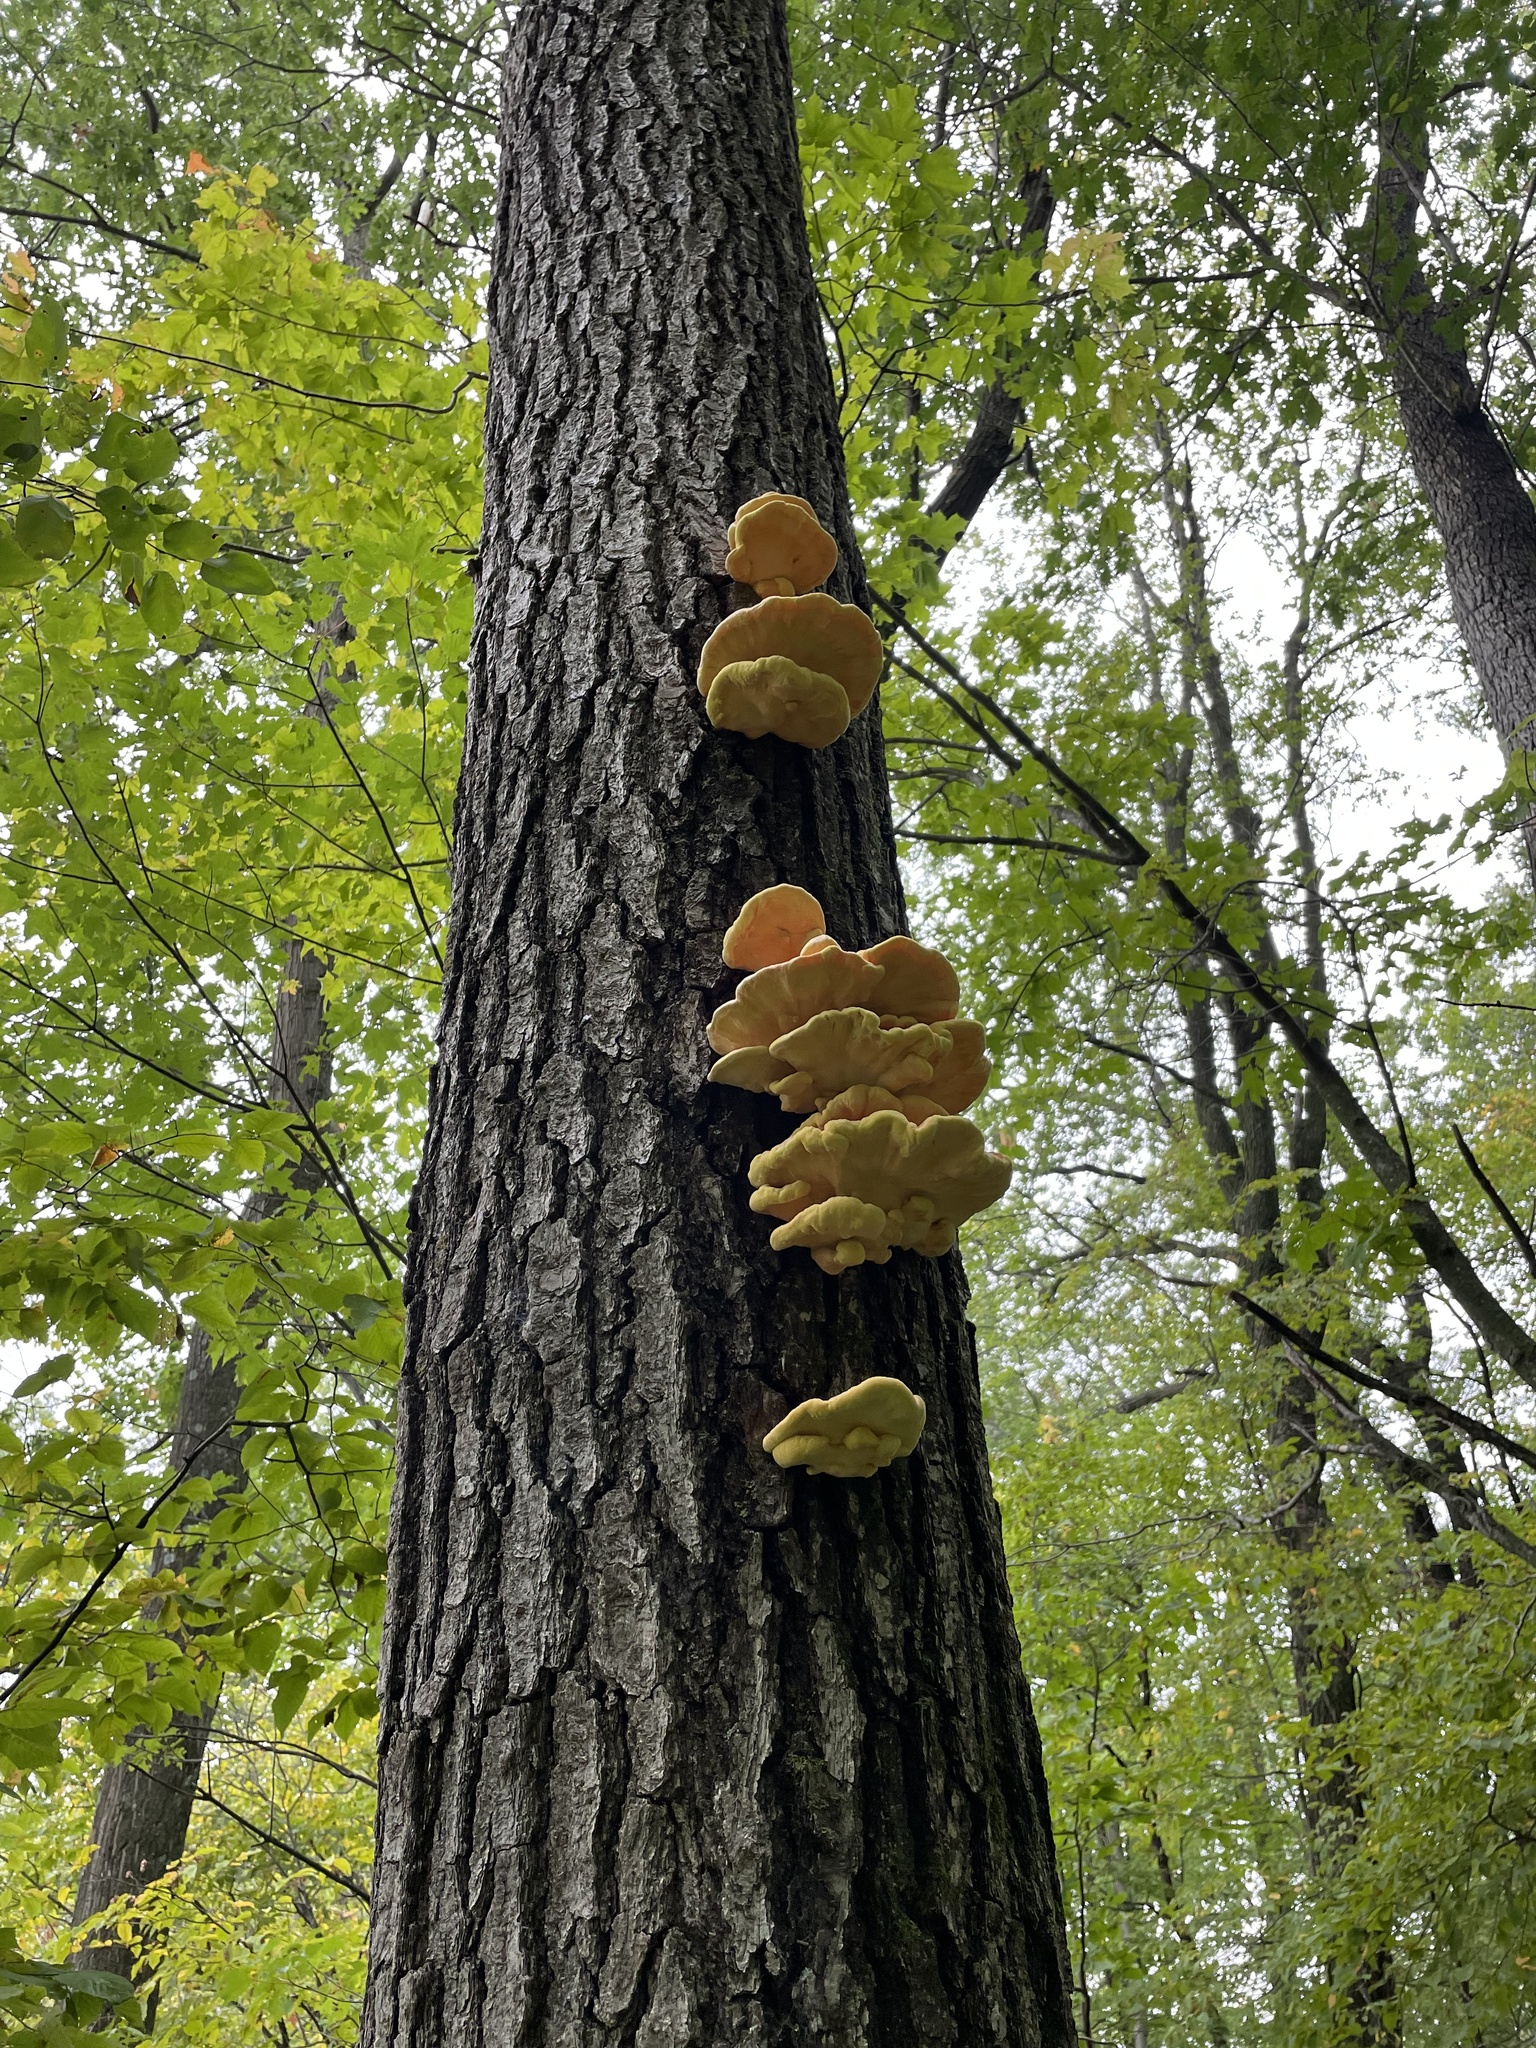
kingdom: Fungi
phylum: Basidiomycota
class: Agaricomycetes
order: Polyporales
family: Laetiporaceae
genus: Laetiporus
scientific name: Laetiporus sulphureus
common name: Chicken of the woods
